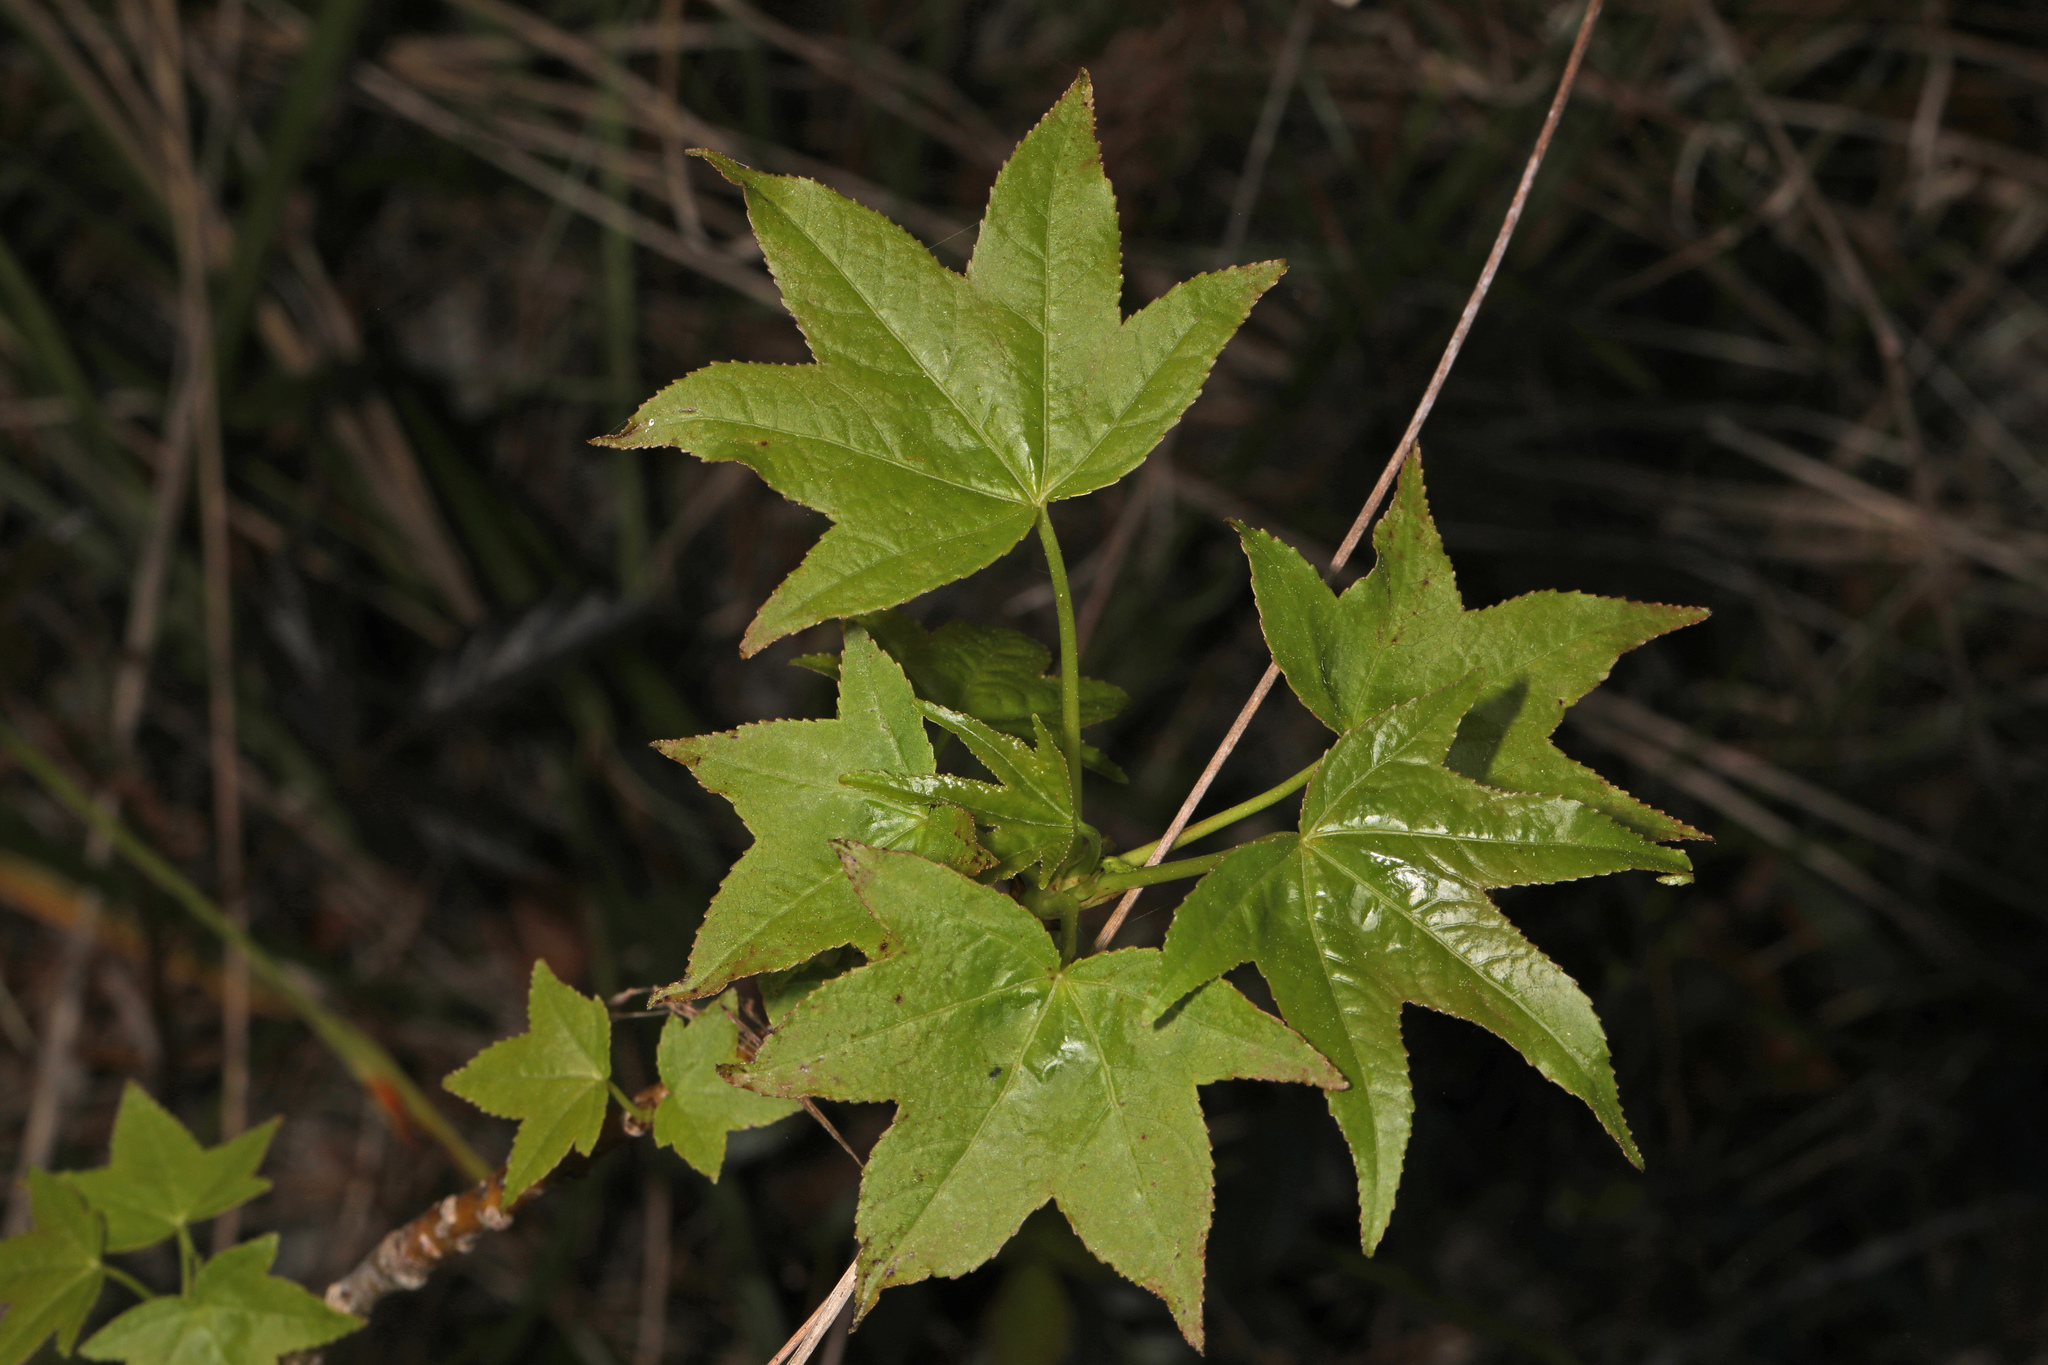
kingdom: Plantae
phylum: Tracheophyta
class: Magnoliopsida
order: Saxifragales
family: Altingiaceae
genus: Liquidambar
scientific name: Liquidambar styraciflua
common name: Sweet gum
